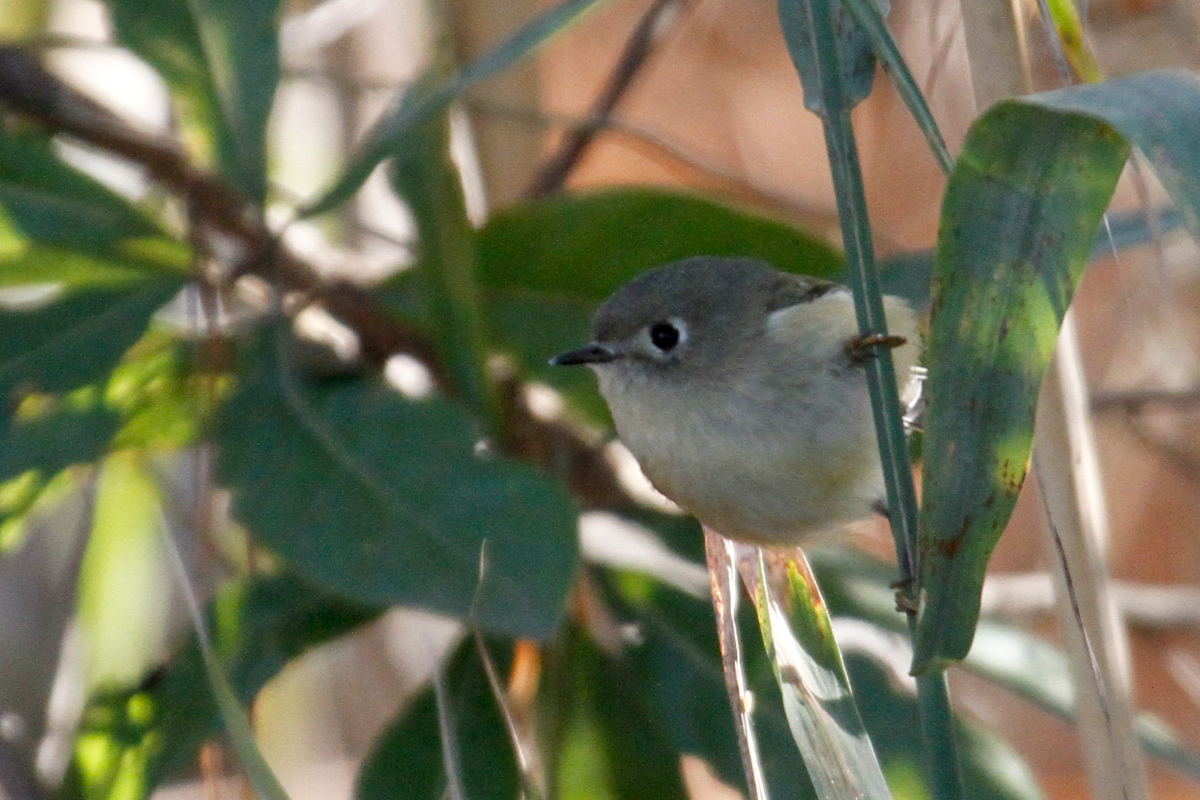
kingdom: Animalia
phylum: Chordata
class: Aves
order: Passeriformes
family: Regulidae
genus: Regulus
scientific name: Regulus calendula
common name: Ruby-crowned kinglet
